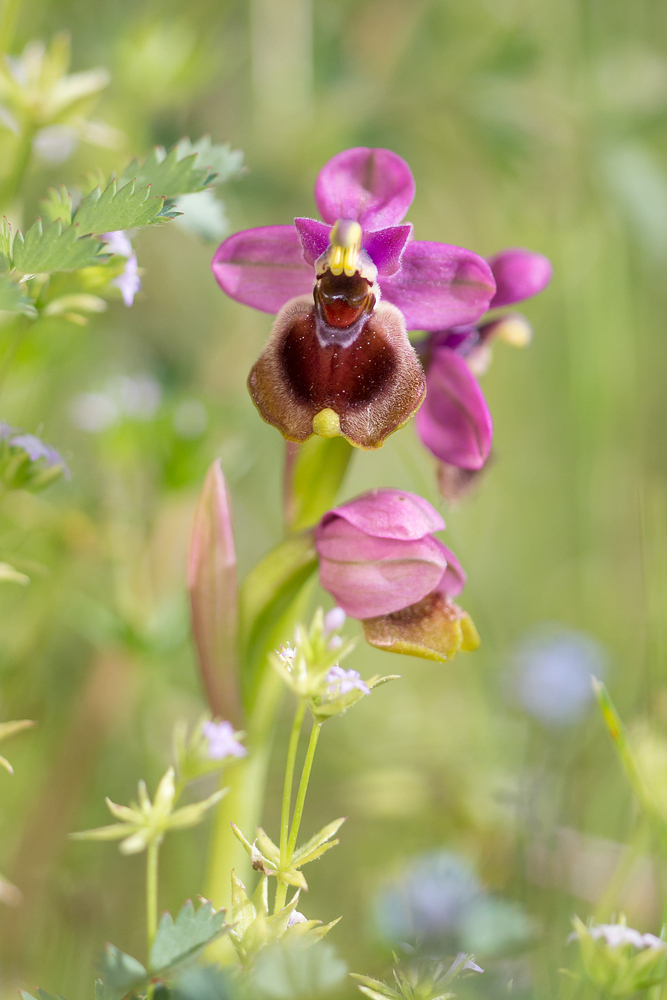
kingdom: Plantae
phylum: Tracheophyta
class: Liliopsida
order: Asparagales
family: Orchidaceae
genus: Ophrys
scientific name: Ophrys tenthredinifera
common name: Sawfly orchid
